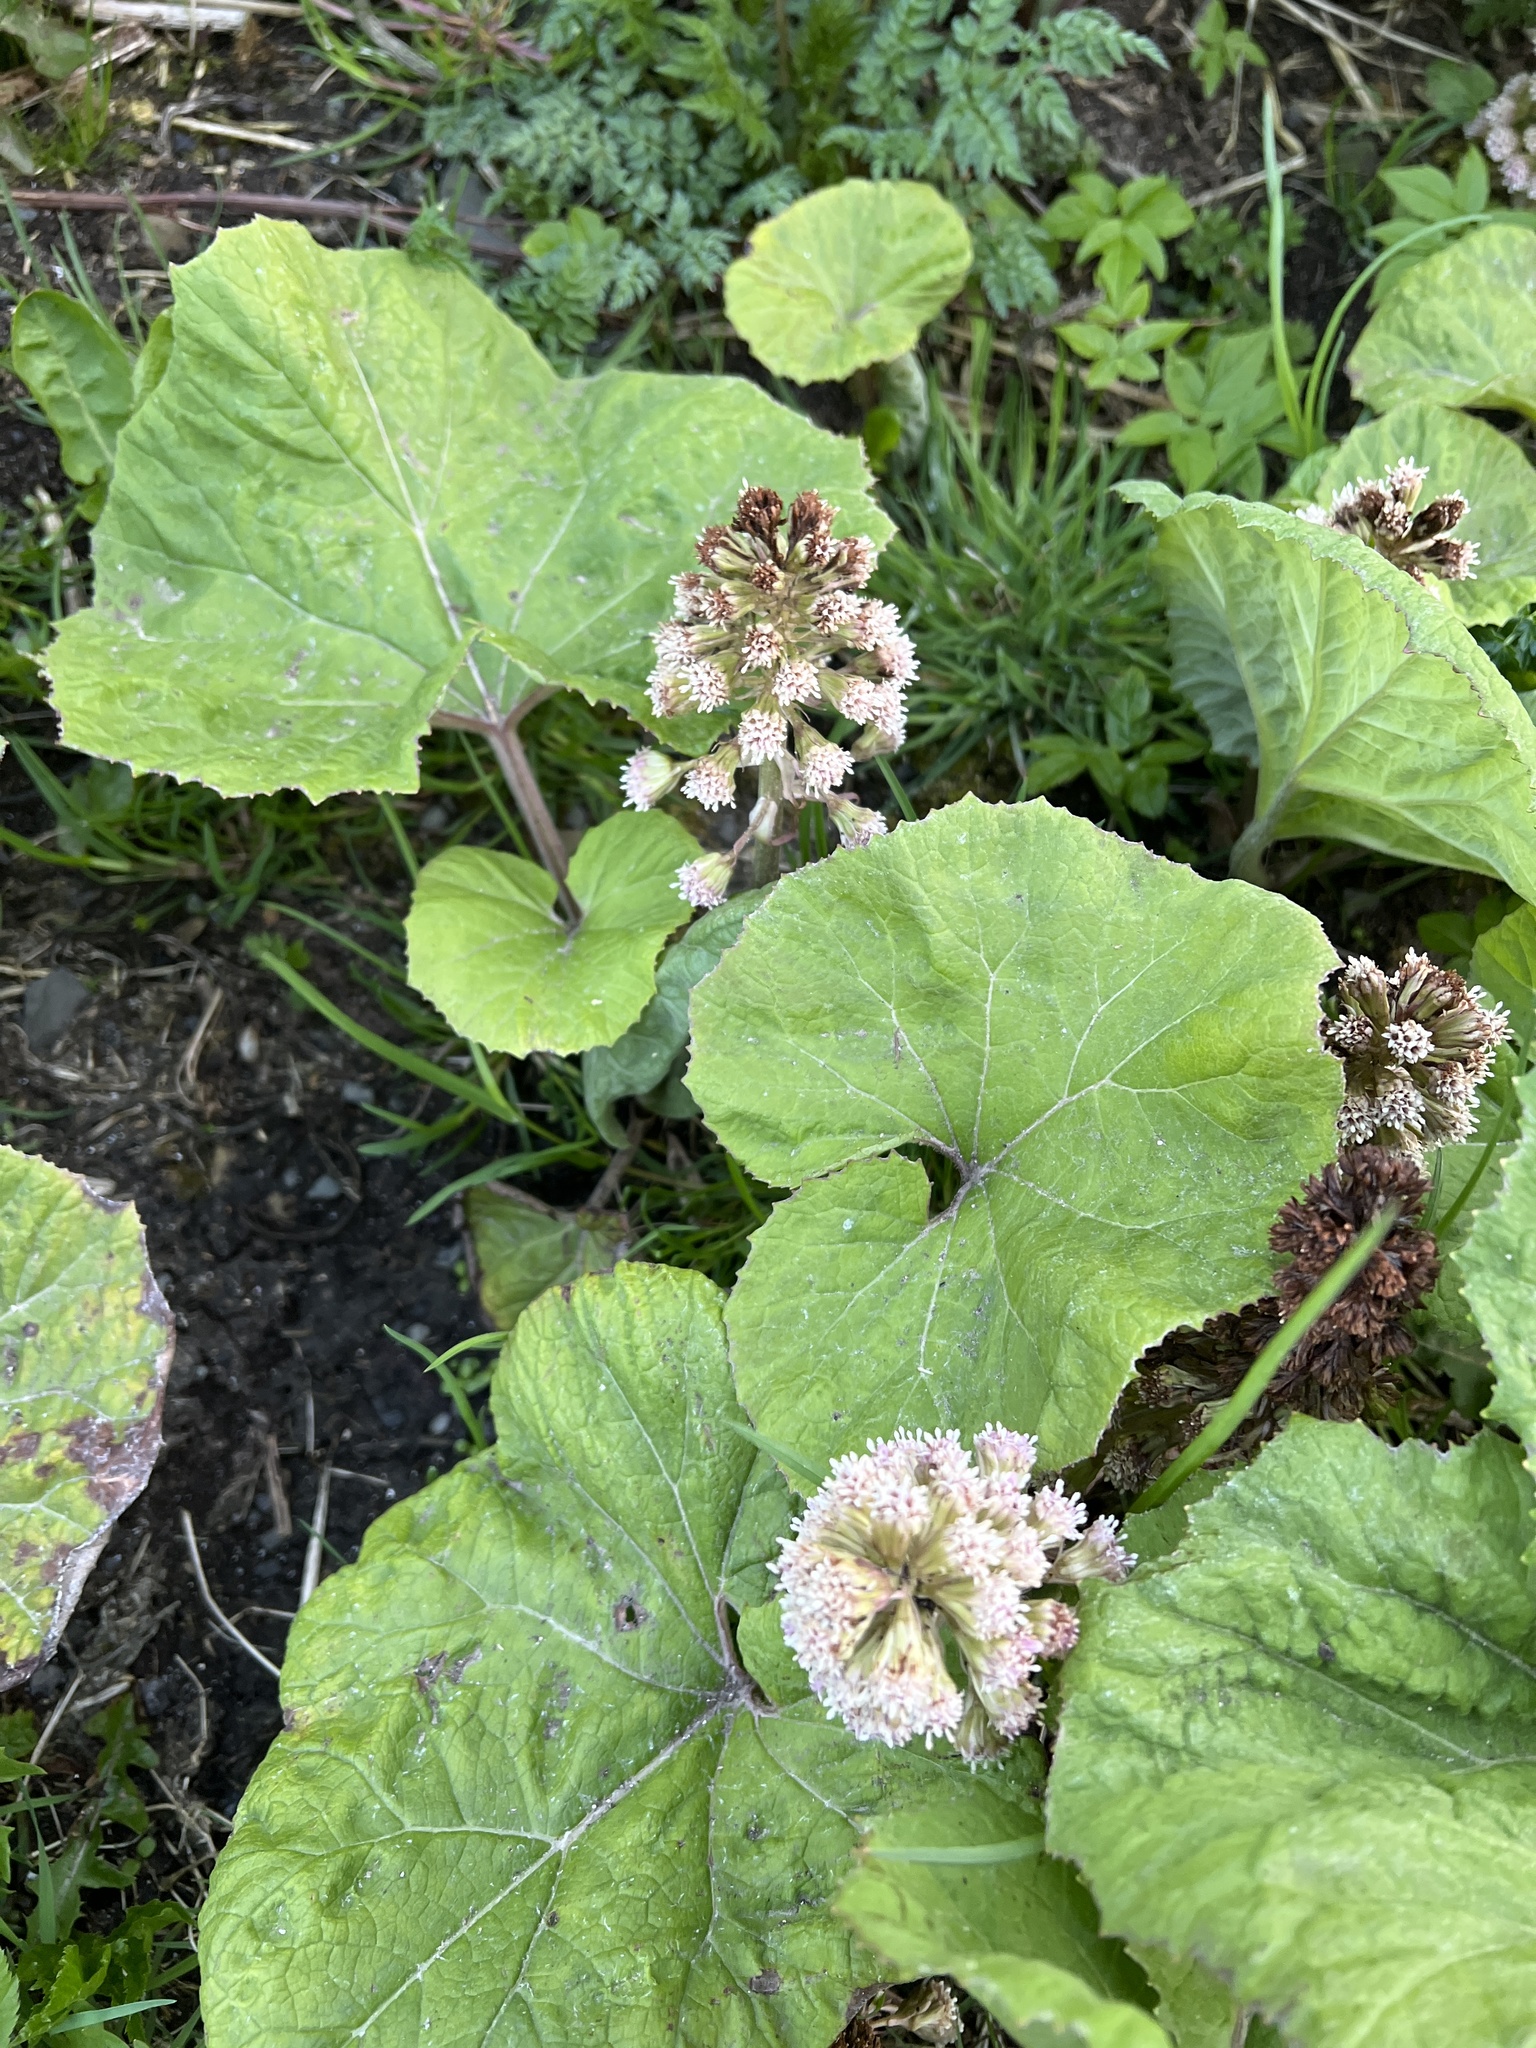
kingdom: Plantae
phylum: Tracheophyta
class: Magnoliopsida
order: Asterales
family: Asteraceae
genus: Petasites
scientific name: Petasites hybridus
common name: Butterbur
